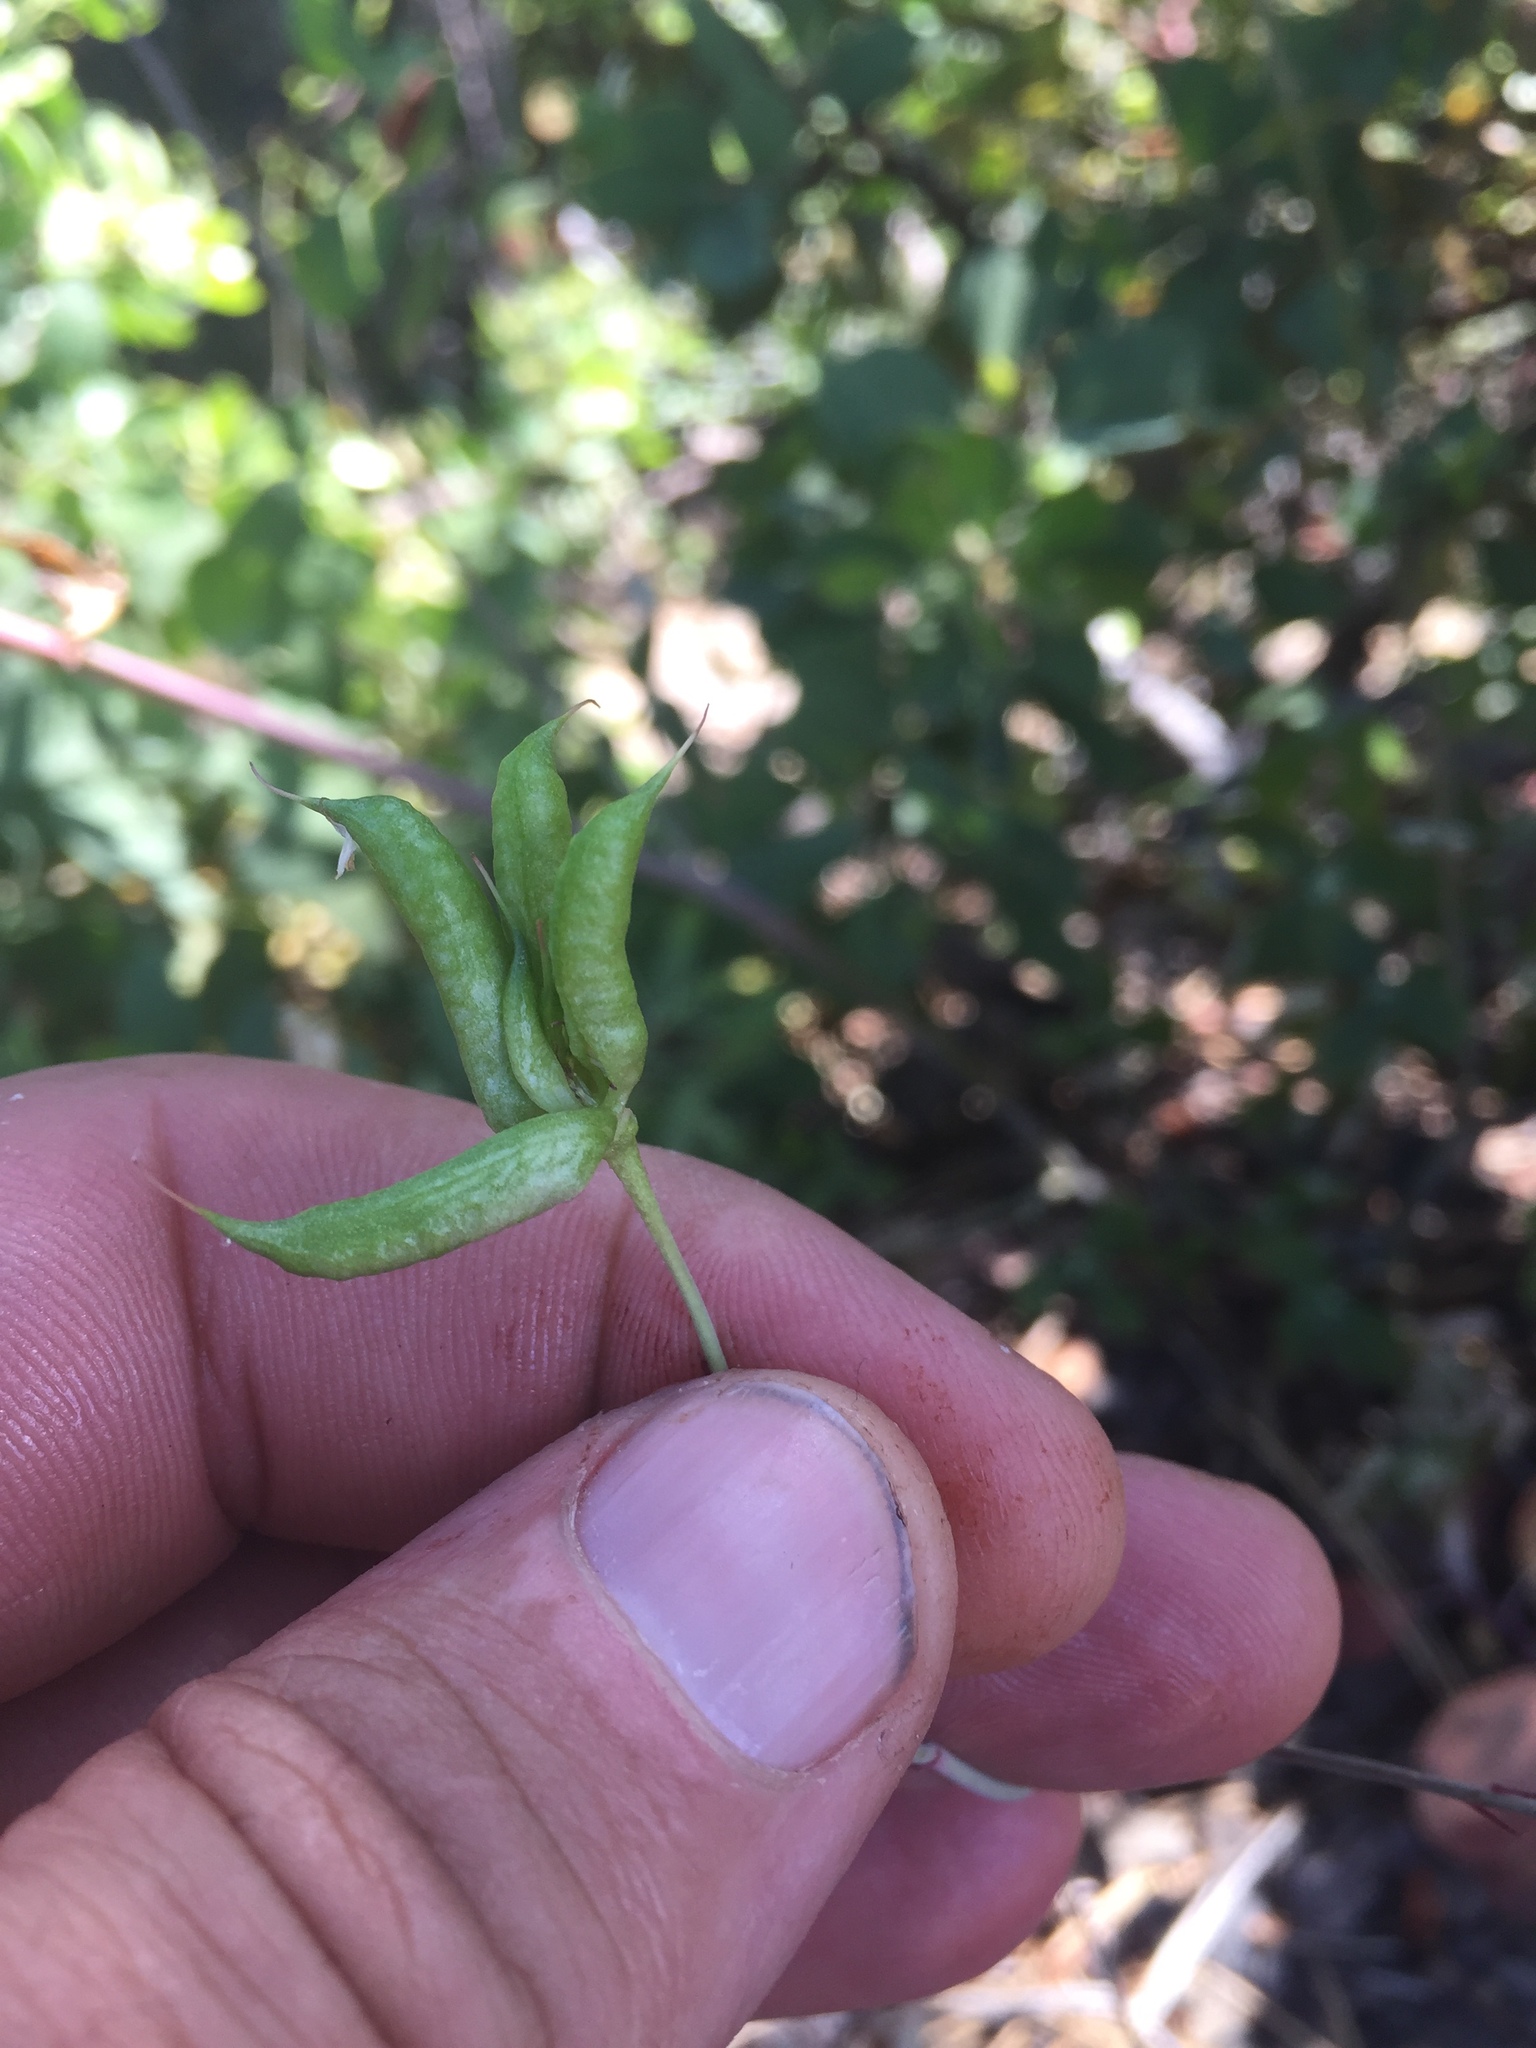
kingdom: Plantae
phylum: Tracheophyta
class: Magnoliopsida
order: Ranunculales
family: Ranunculaceae
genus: Delphinium
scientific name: Delphinium nudicaule
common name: Red larkspur
